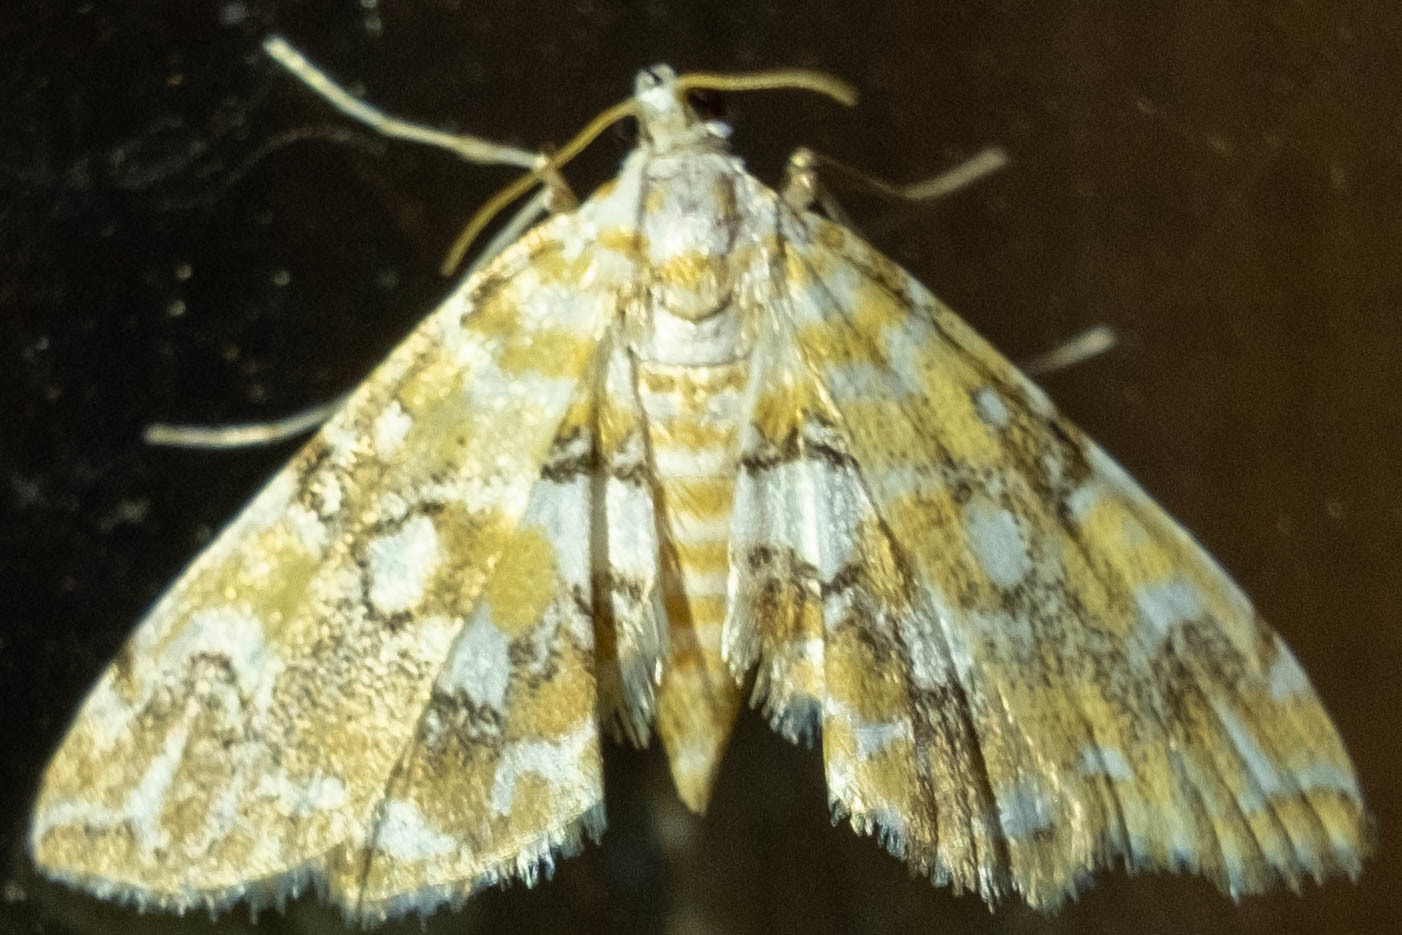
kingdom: Animalia
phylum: Arthropoda
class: Insecta
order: Lepidoptera
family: Crambidae
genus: Elophila
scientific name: Elophila icciusalis
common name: Pondside pyralid moth
